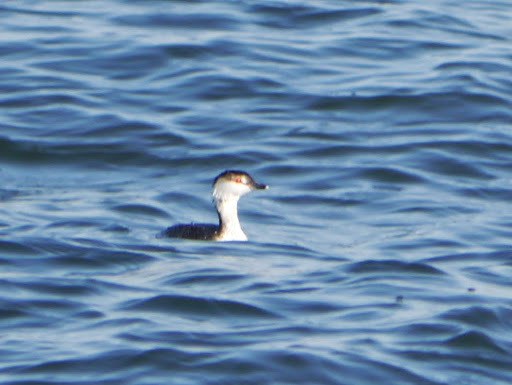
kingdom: Animalia
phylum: Chordata
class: Aves
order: Podicipediformes
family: Podicipedidae
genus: Podiceps
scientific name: Podiceps auritus
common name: Horned grebe
